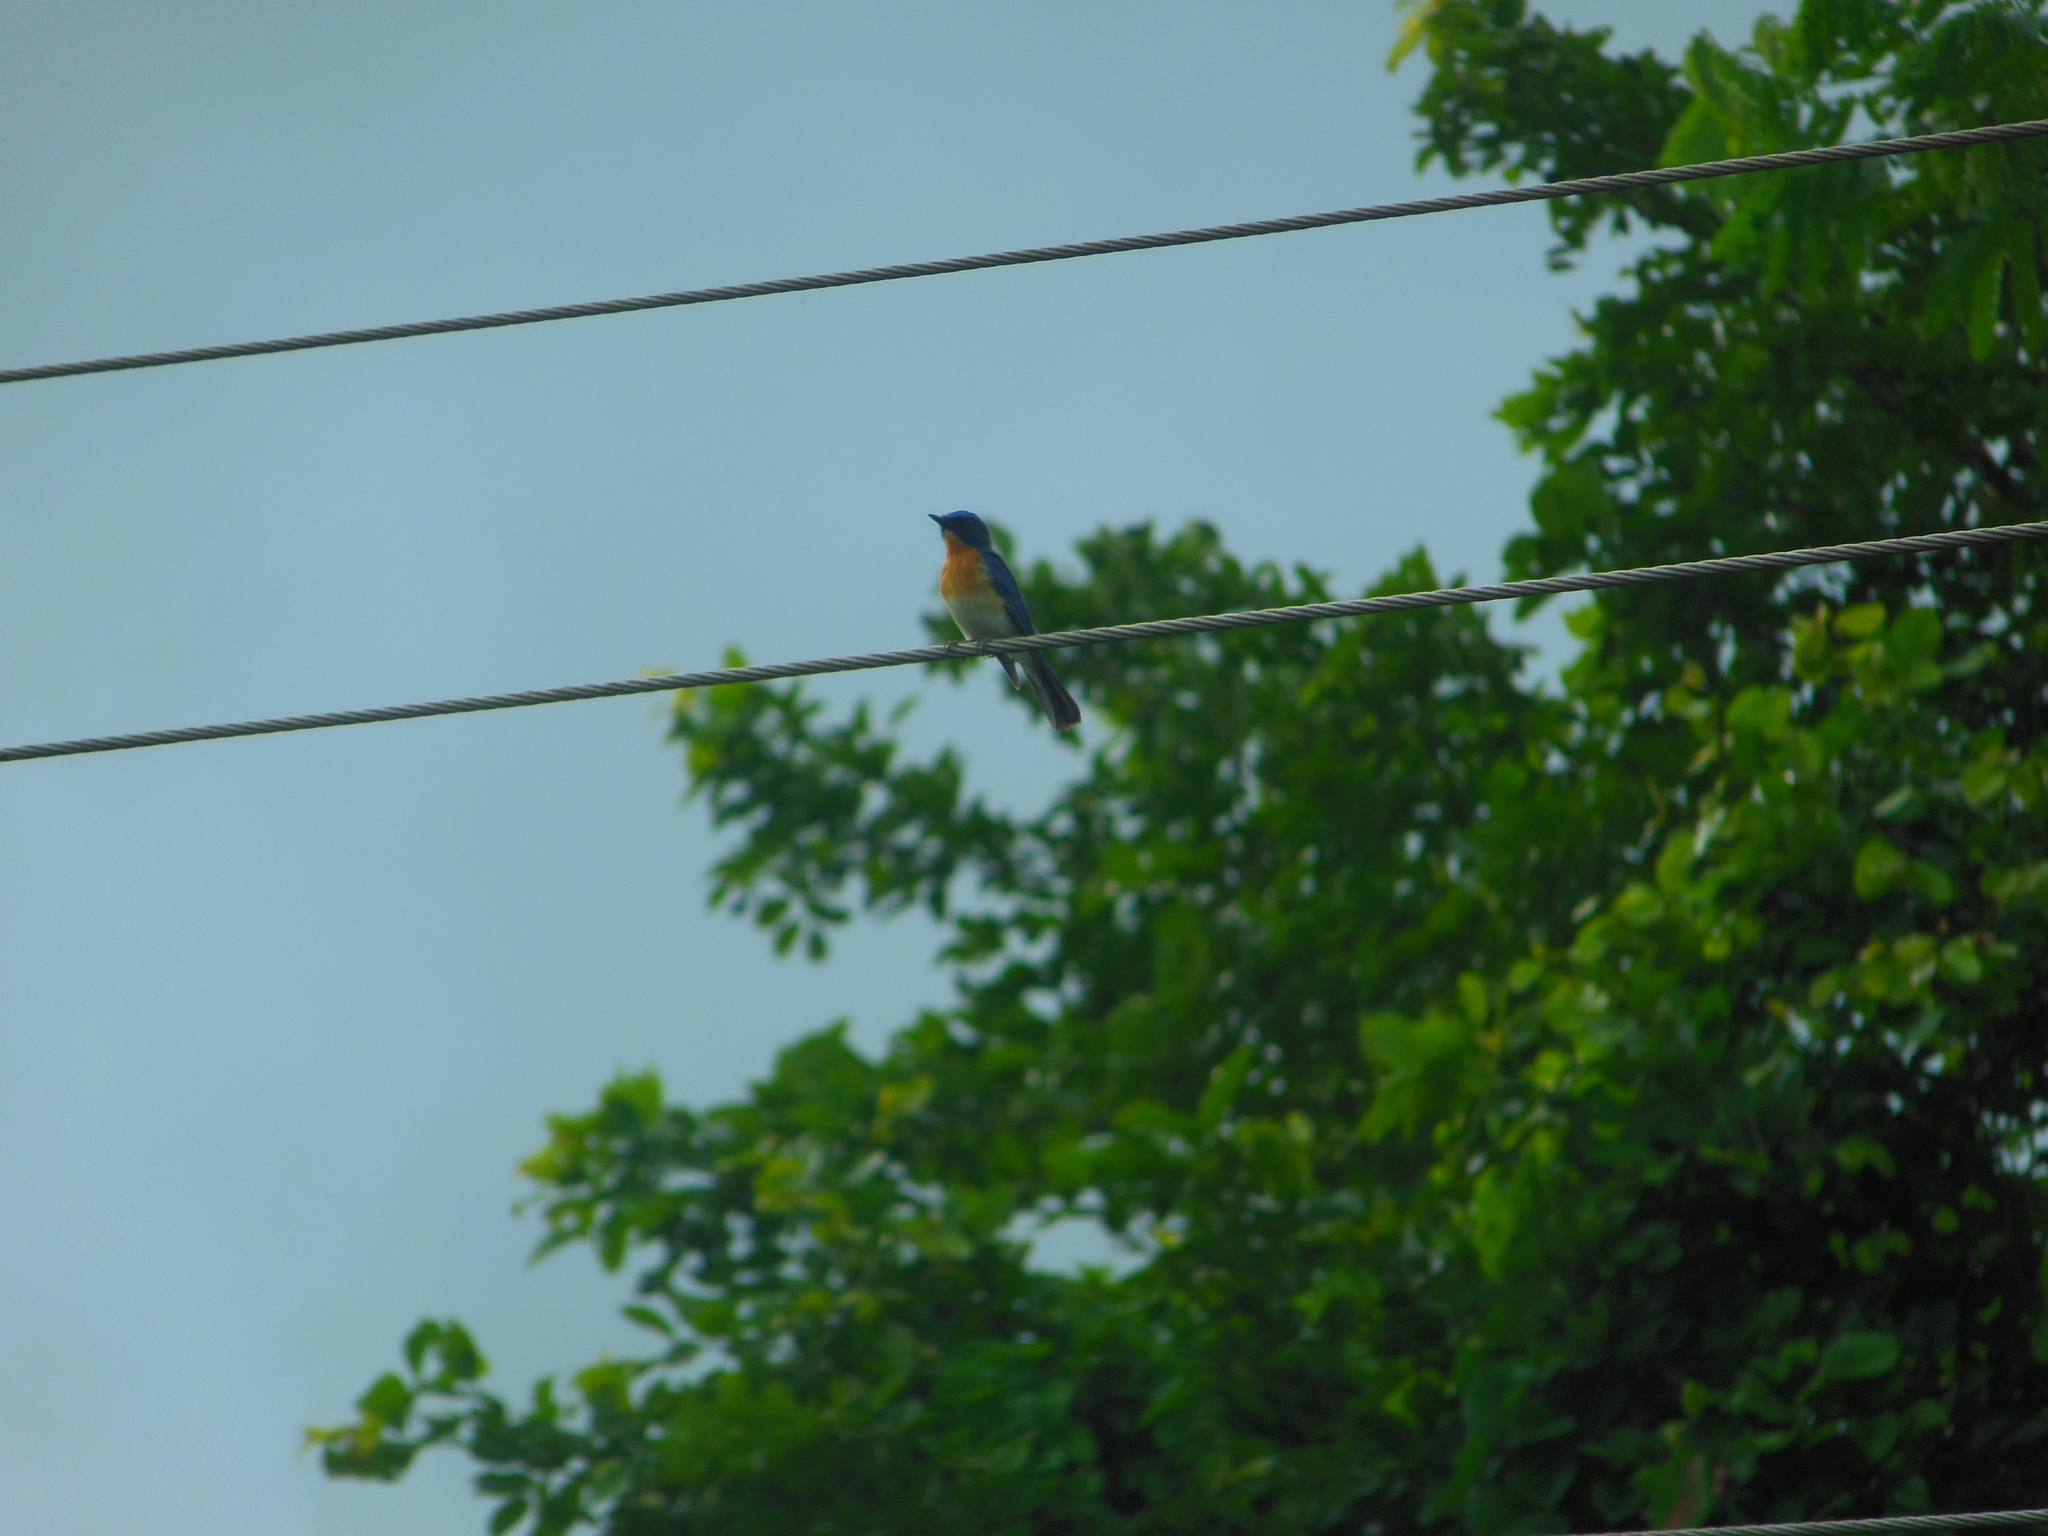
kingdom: Animalia
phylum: Chordata
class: Aves
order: Passeriformes
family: Muscicapidae
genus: Cyornis
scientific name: Cyornis tickelliae
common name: Tickell's blue flycatcher
